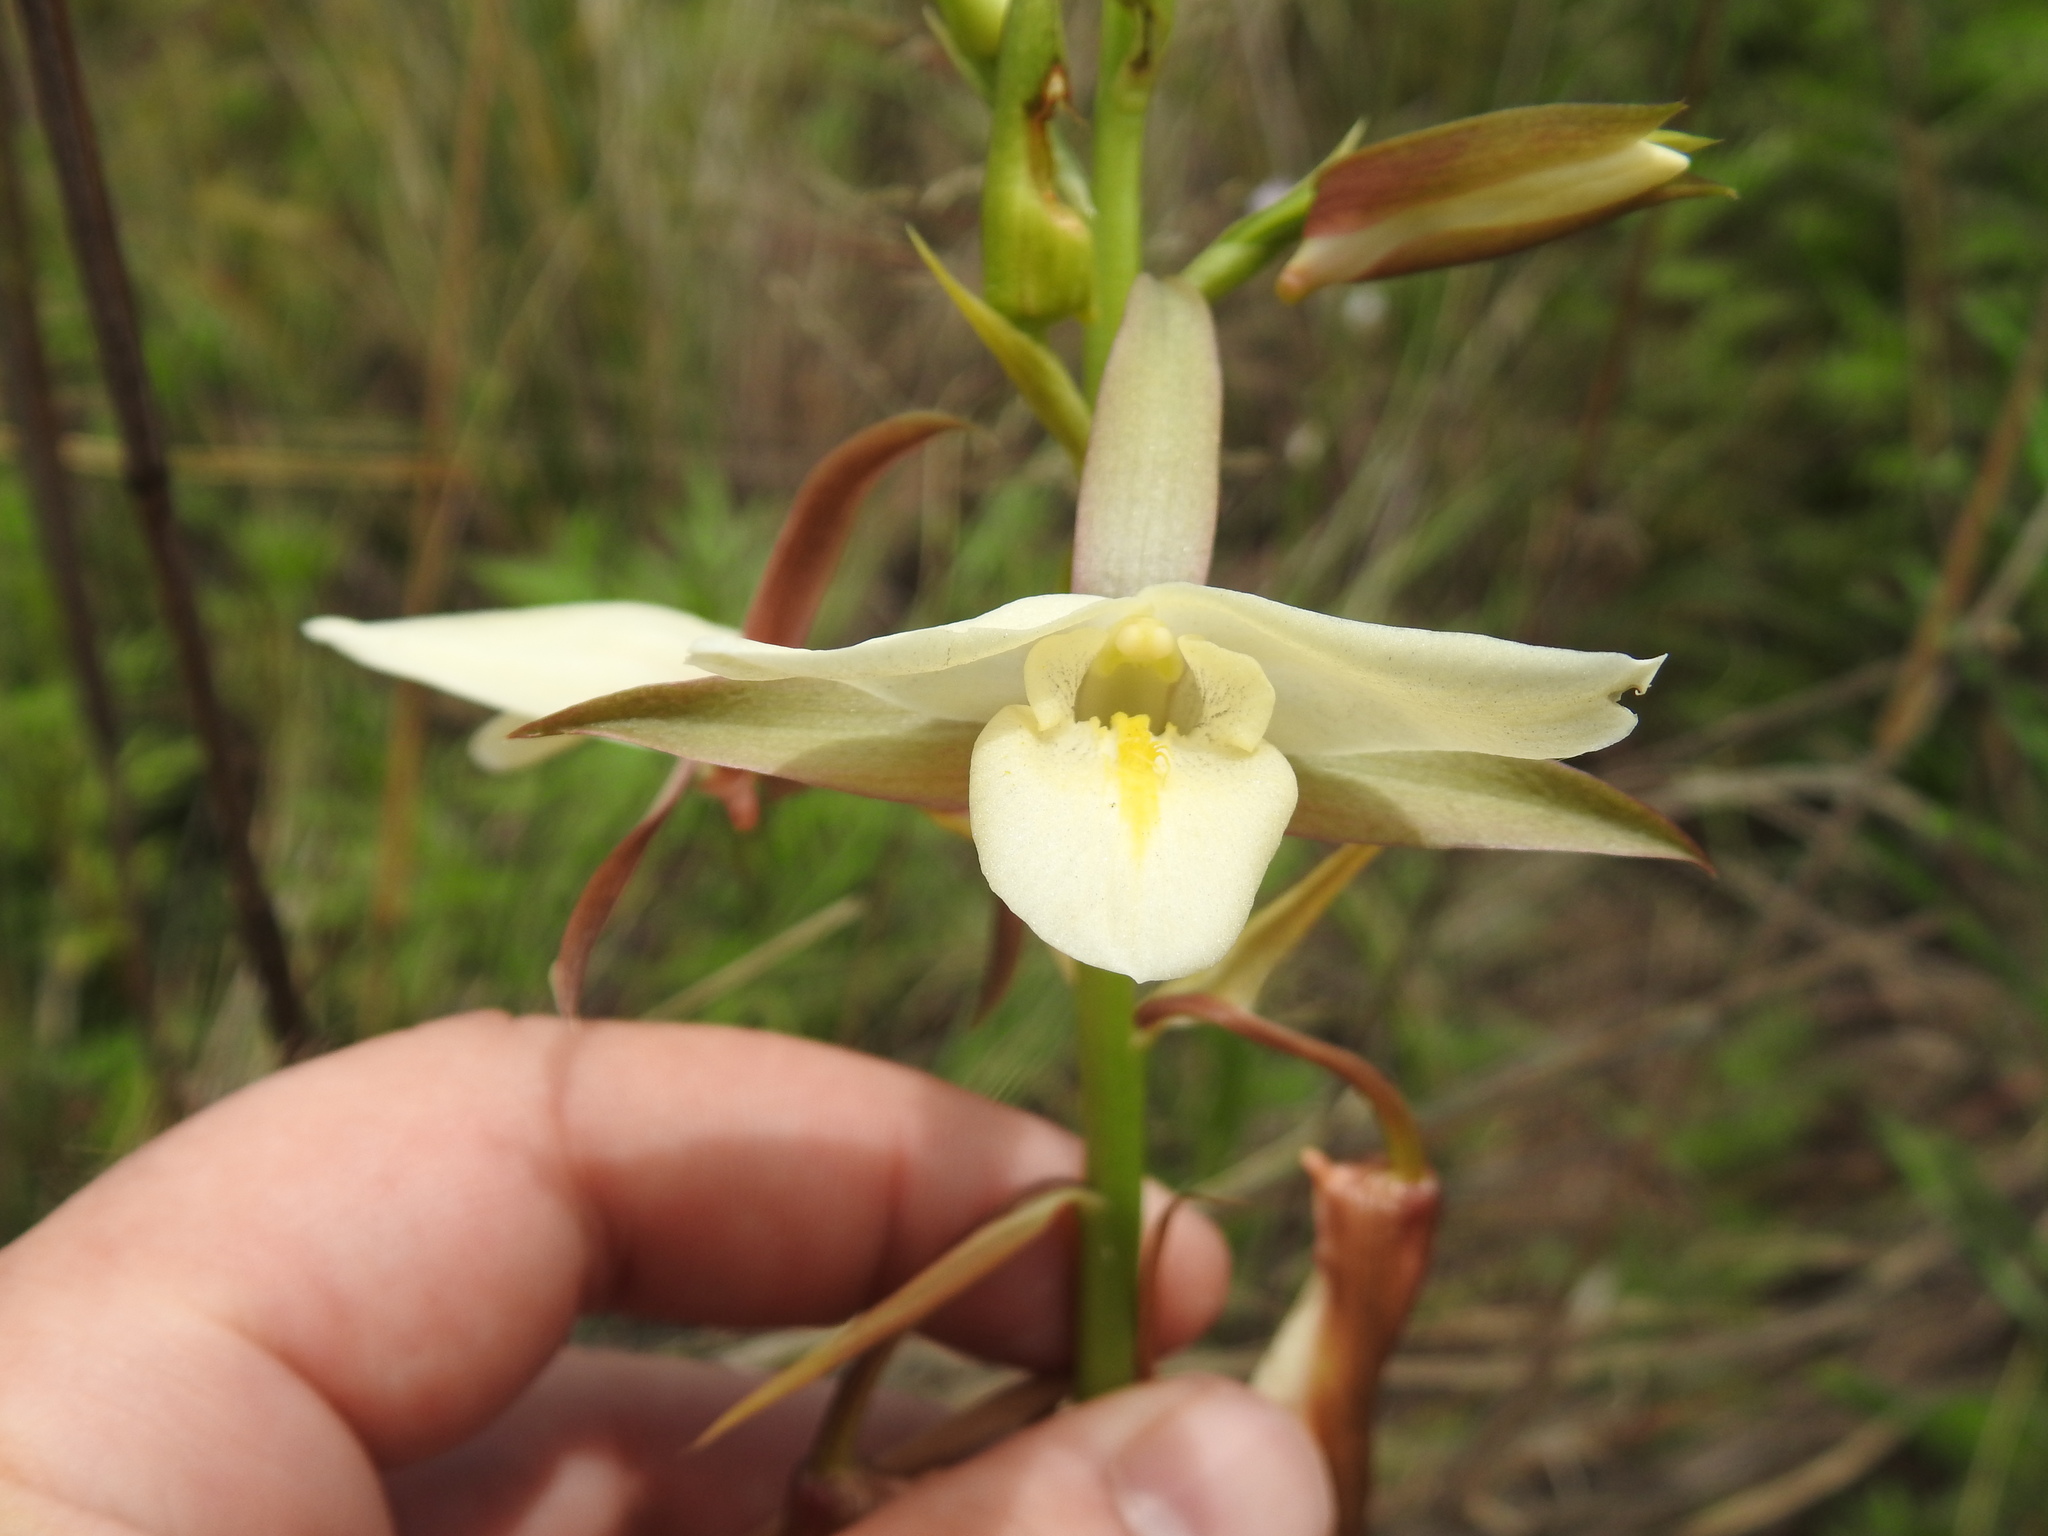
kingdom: Plantae
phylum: Tracheophyta
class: Liliopsida
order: Asparagales
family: Orchidaceae
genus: Eulophia
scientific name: Eulophia ovalis
